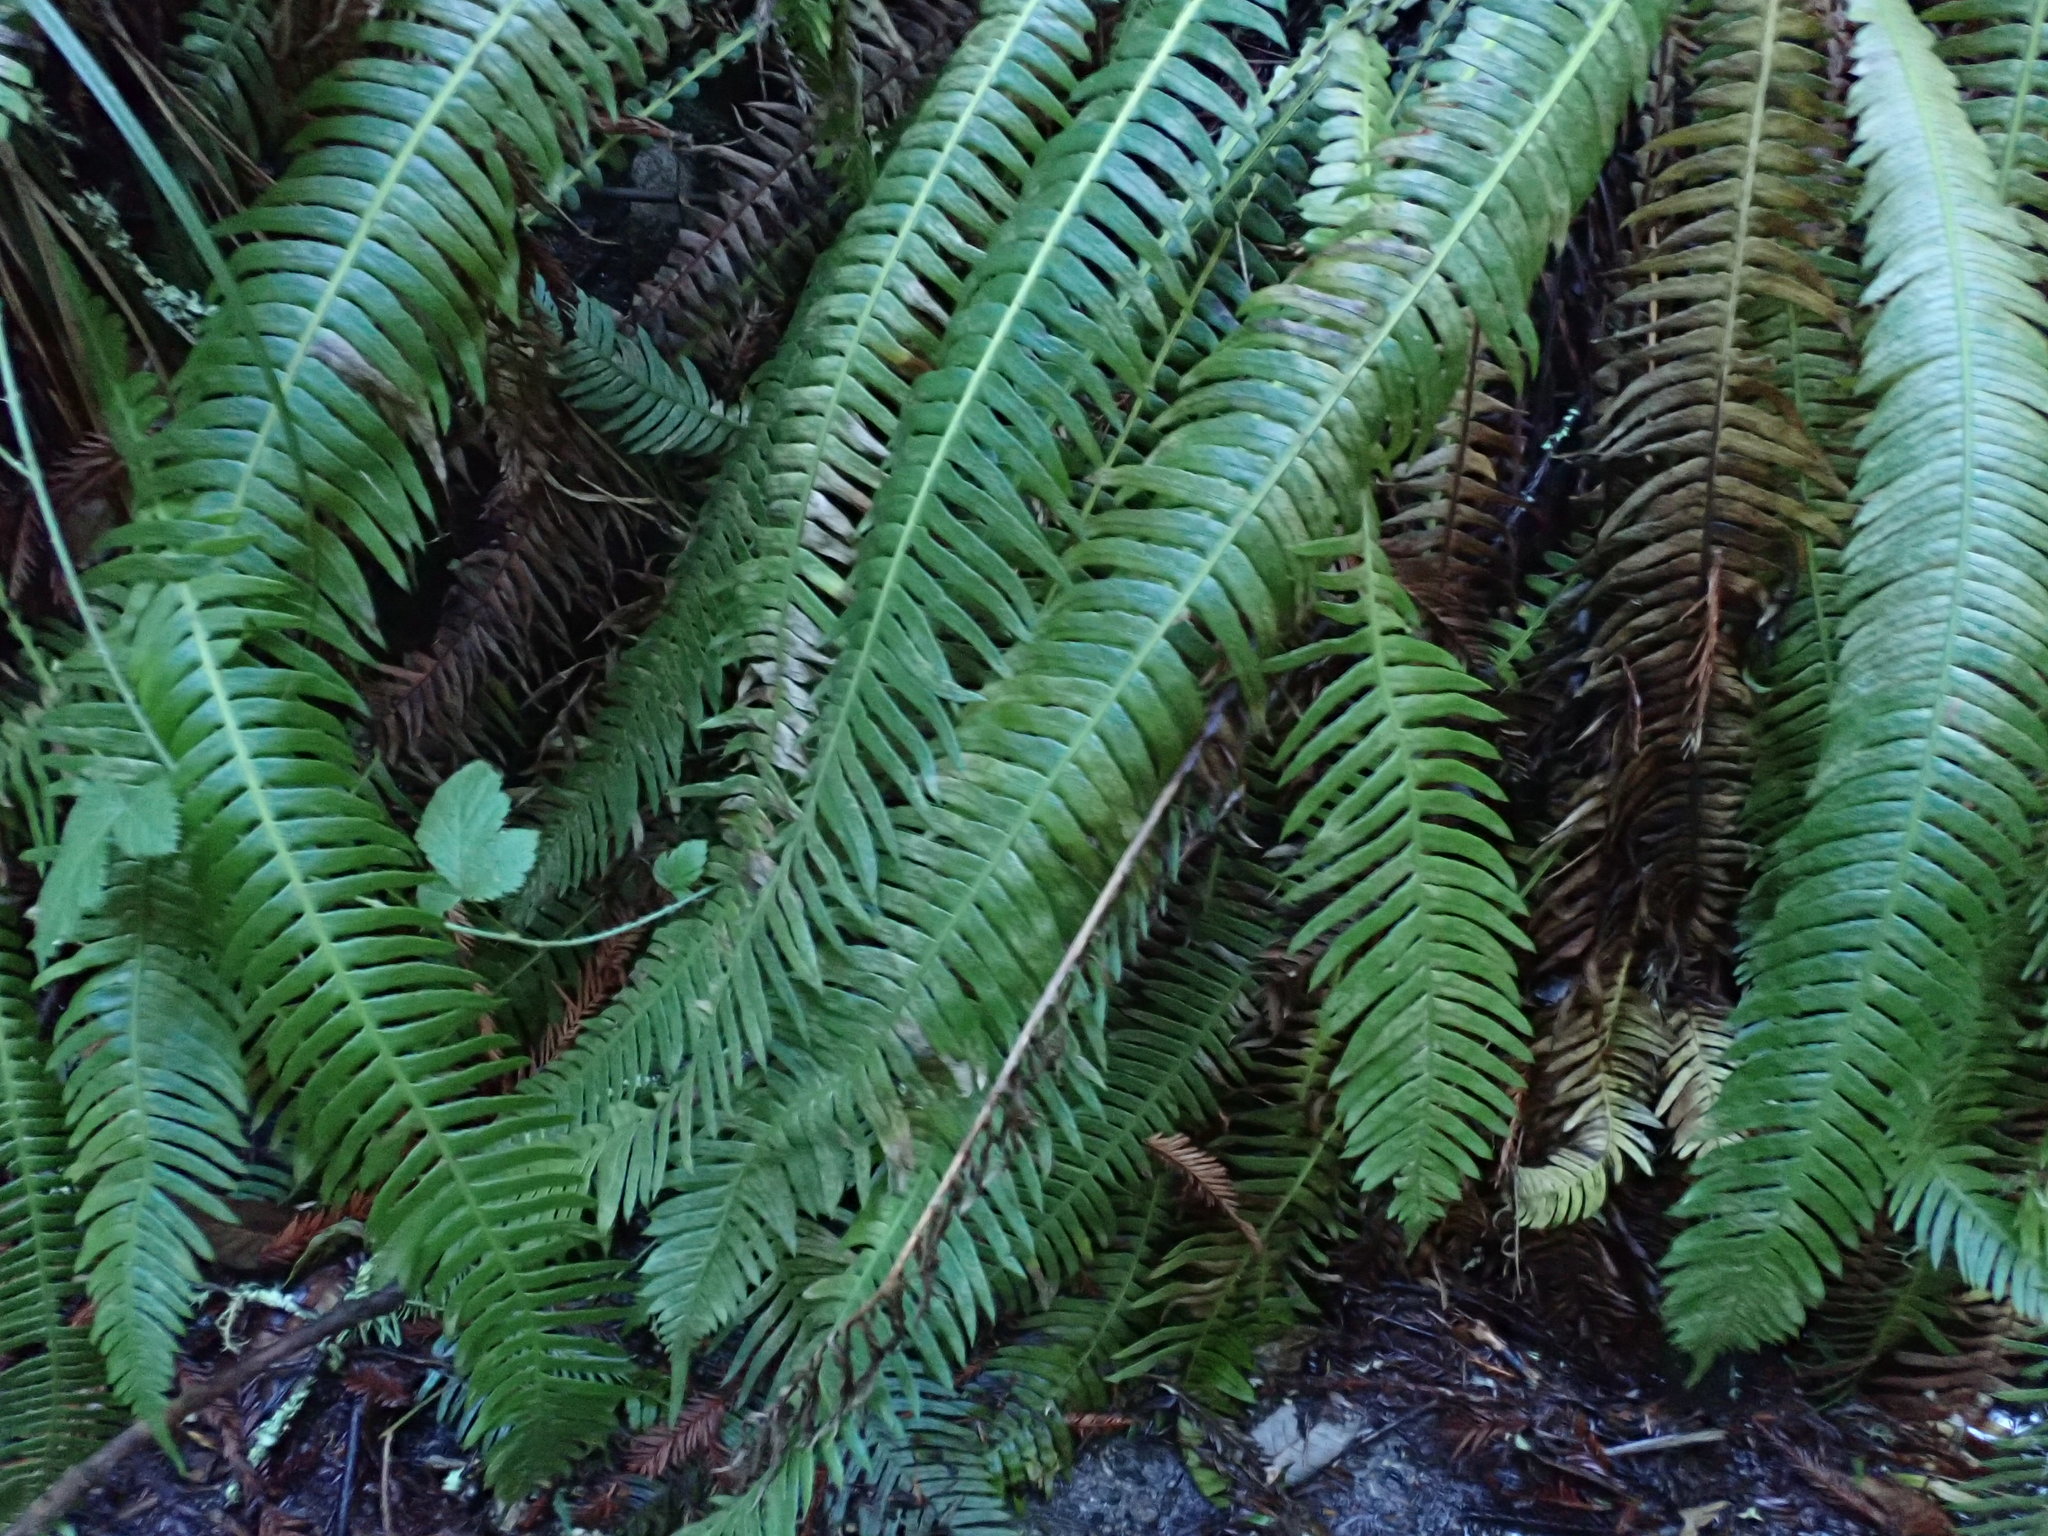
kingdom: Plantae
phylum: Tracheophyta
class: Polypodiopsida
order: Polypodiales
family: Blechnaceae
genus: Struthiopteris
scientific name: Struthiopteris spicant
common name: Deer fern
